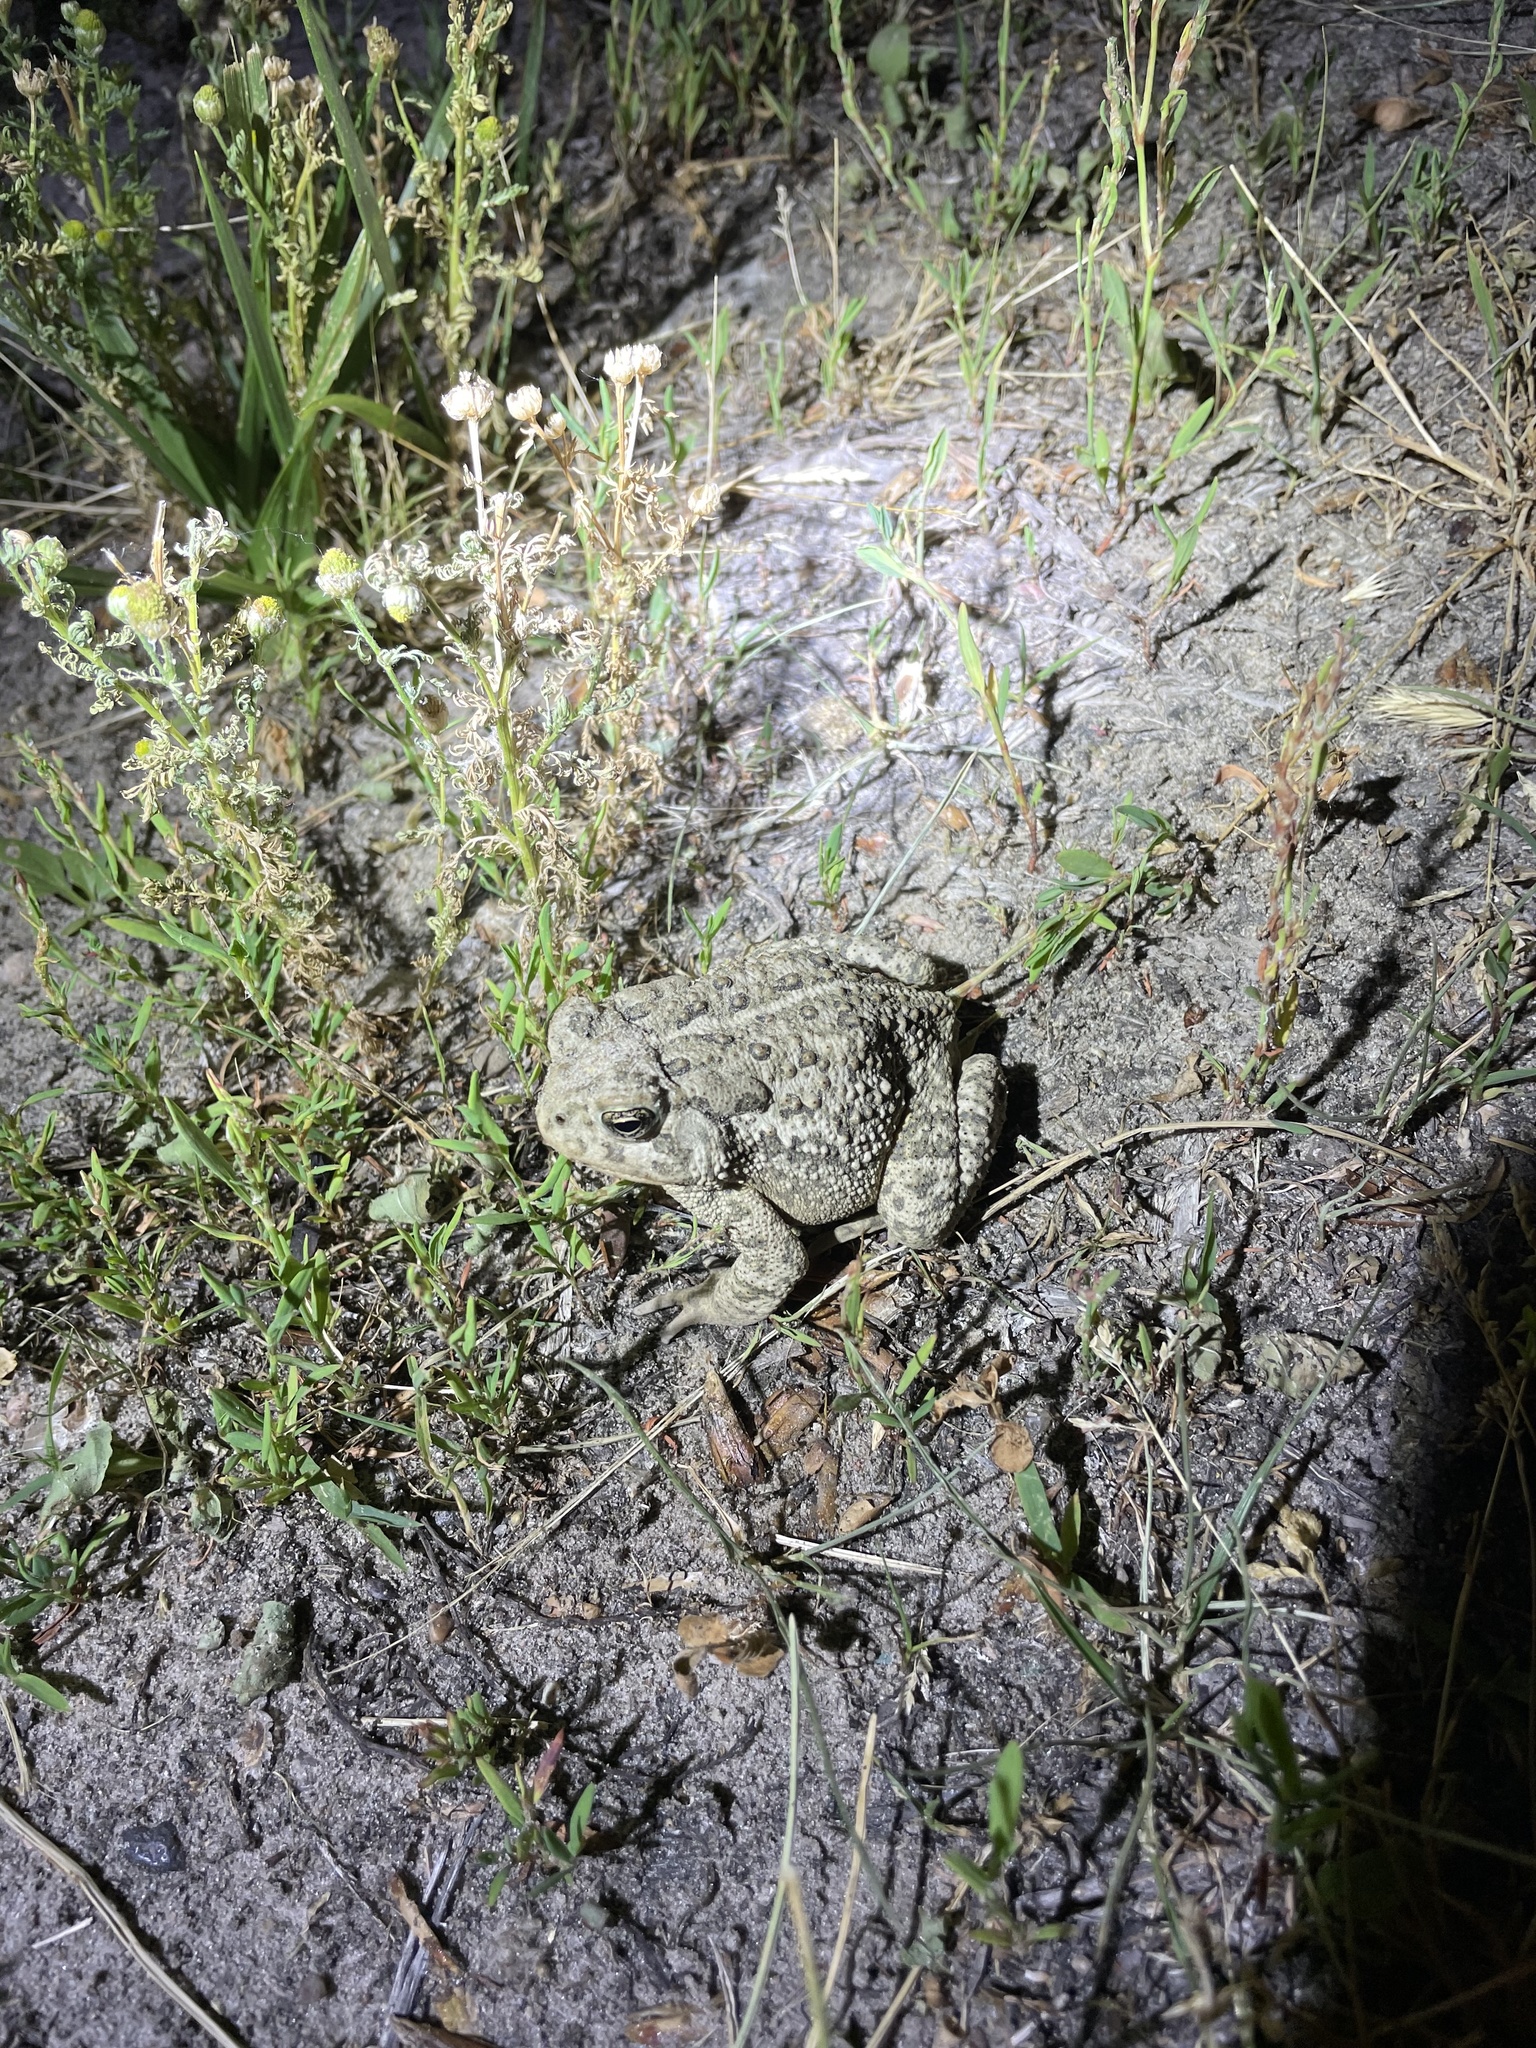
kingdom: Animalia
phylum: Chordata
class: Amphibia
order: Anura
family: Bufonidae
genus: Anaxyrus
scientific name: Anaxyrus woodhousii
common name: Woodhouse's toad
